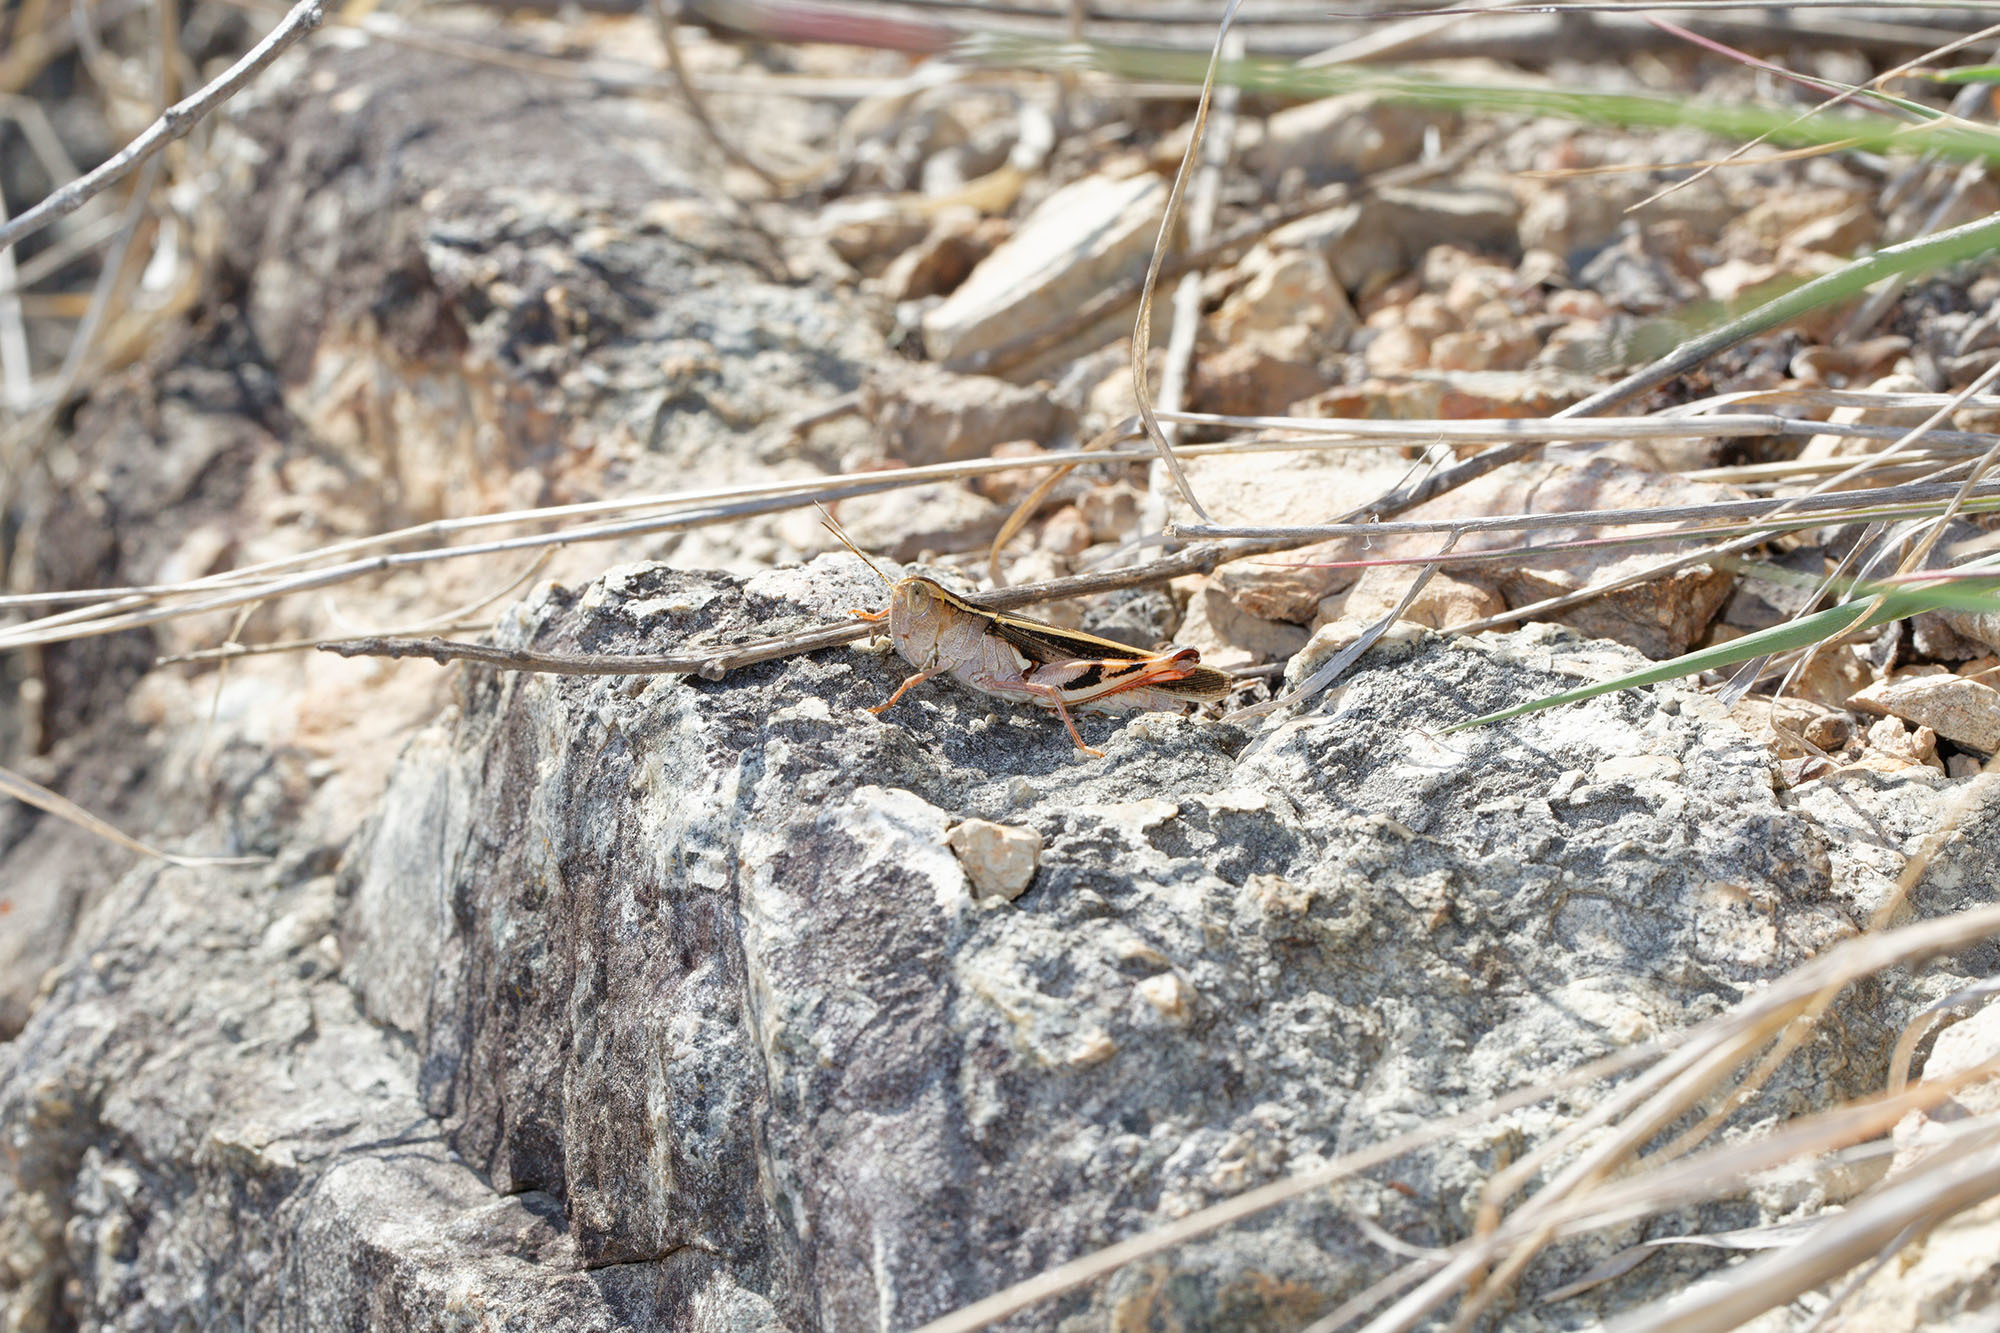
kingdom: Animalia
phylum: Arthropoda
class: Insecta
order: Orthoptera
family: Acrididae
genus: Macrocara
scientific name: Macrocara conglobata
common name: Rainbow grasshopper
